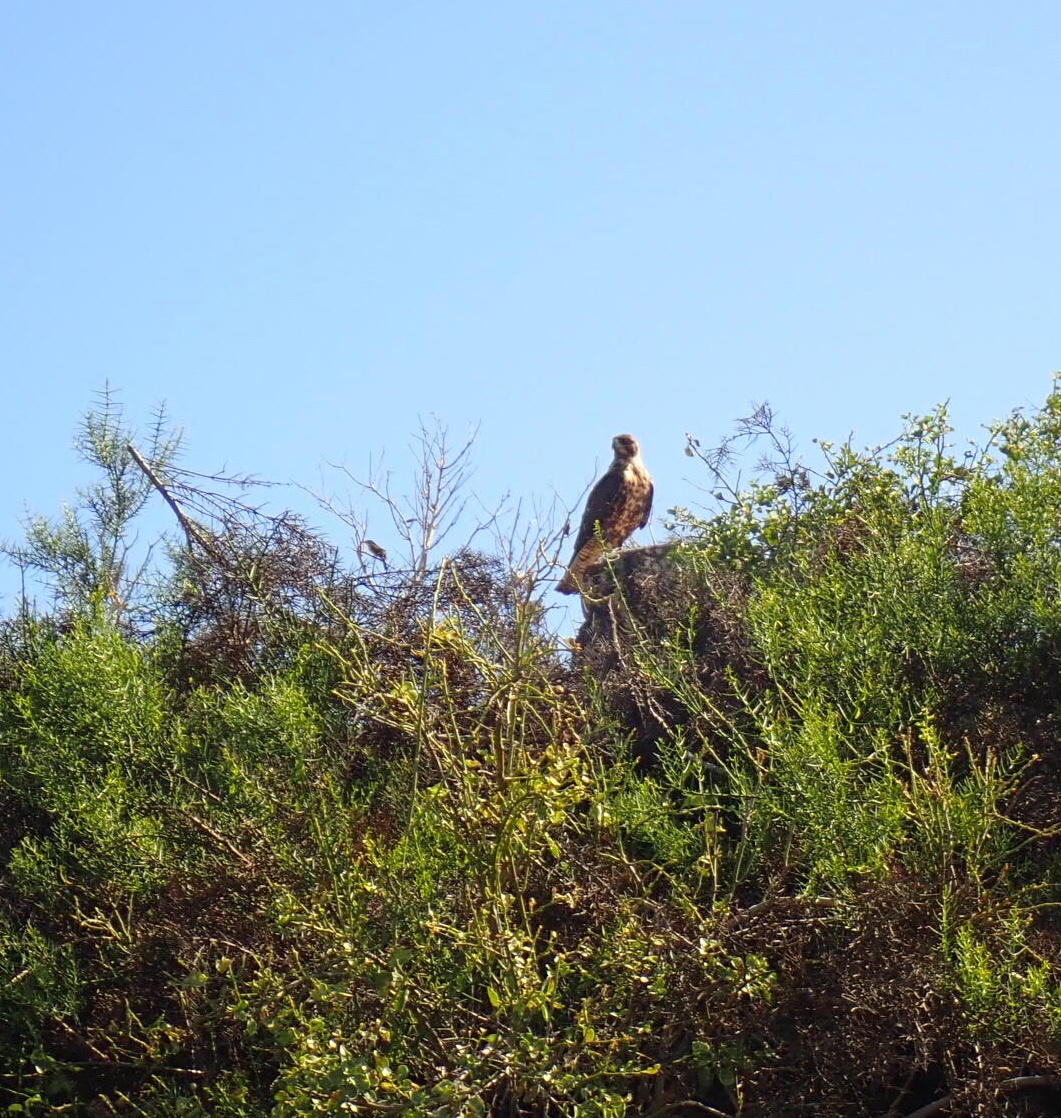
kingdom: Animalia
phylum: Chordata
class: Aves
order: Accipitriformes
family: Accipitridae
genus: Buteo
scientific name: Buteo galapagoensis
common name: Galapagos hawk
